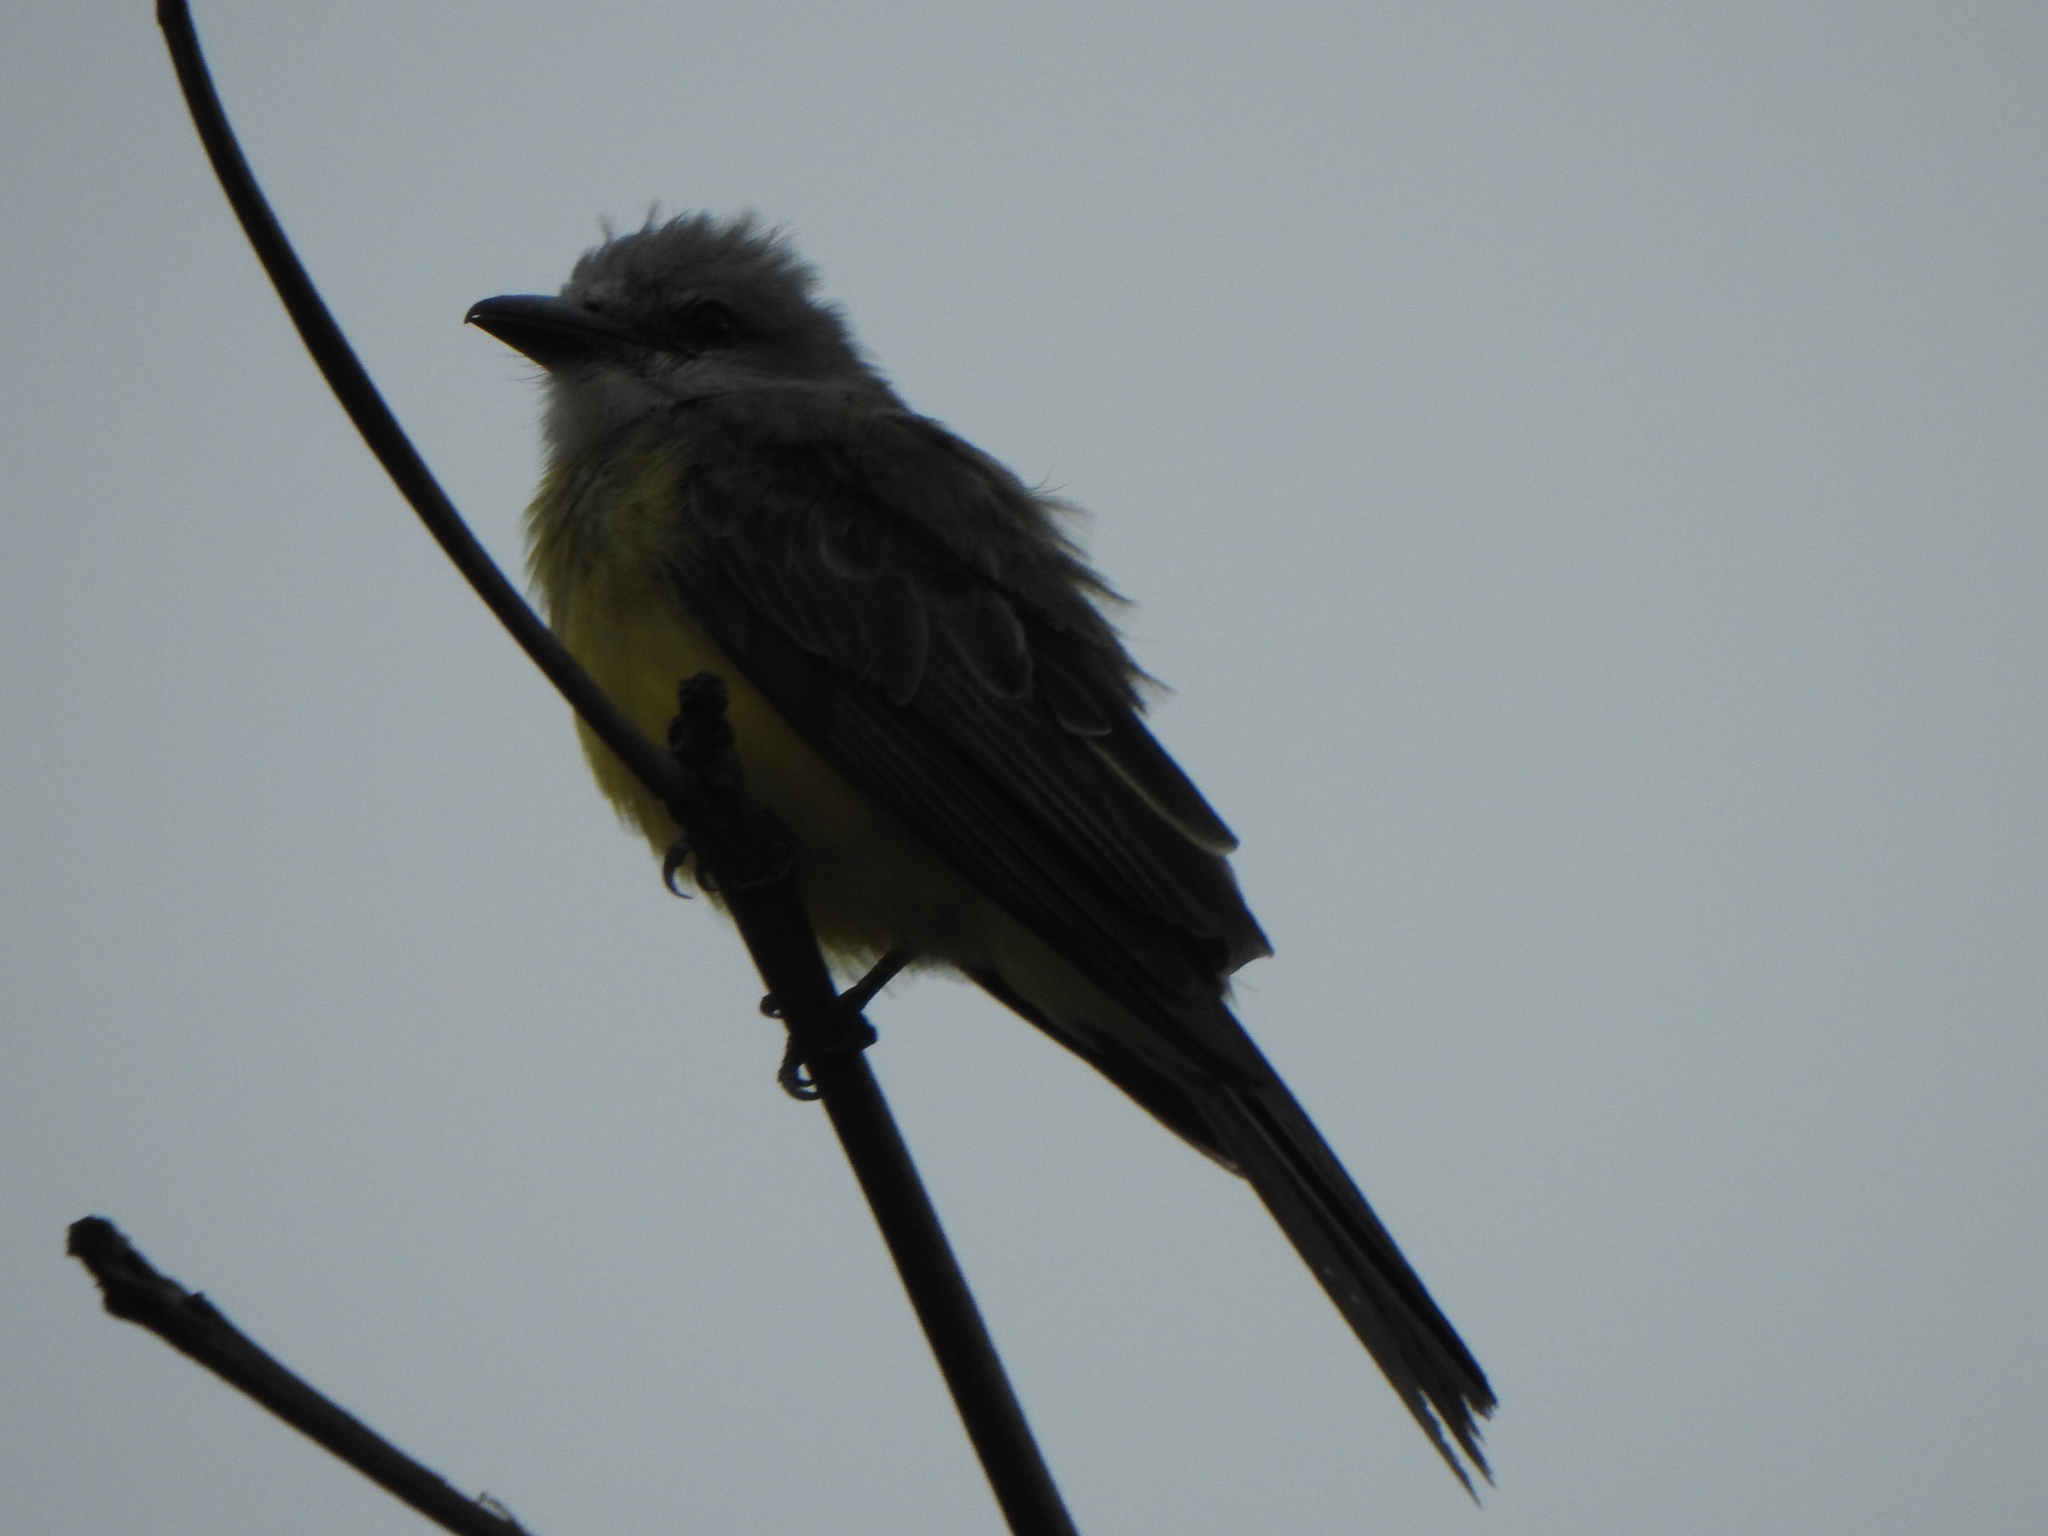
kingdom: Animalia
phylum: Chordata
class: Aves
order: Passeriformes
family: Tyrannidae
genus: Tyrannus
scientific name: Tyrannus melancholicus
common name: Tropical kingbird
